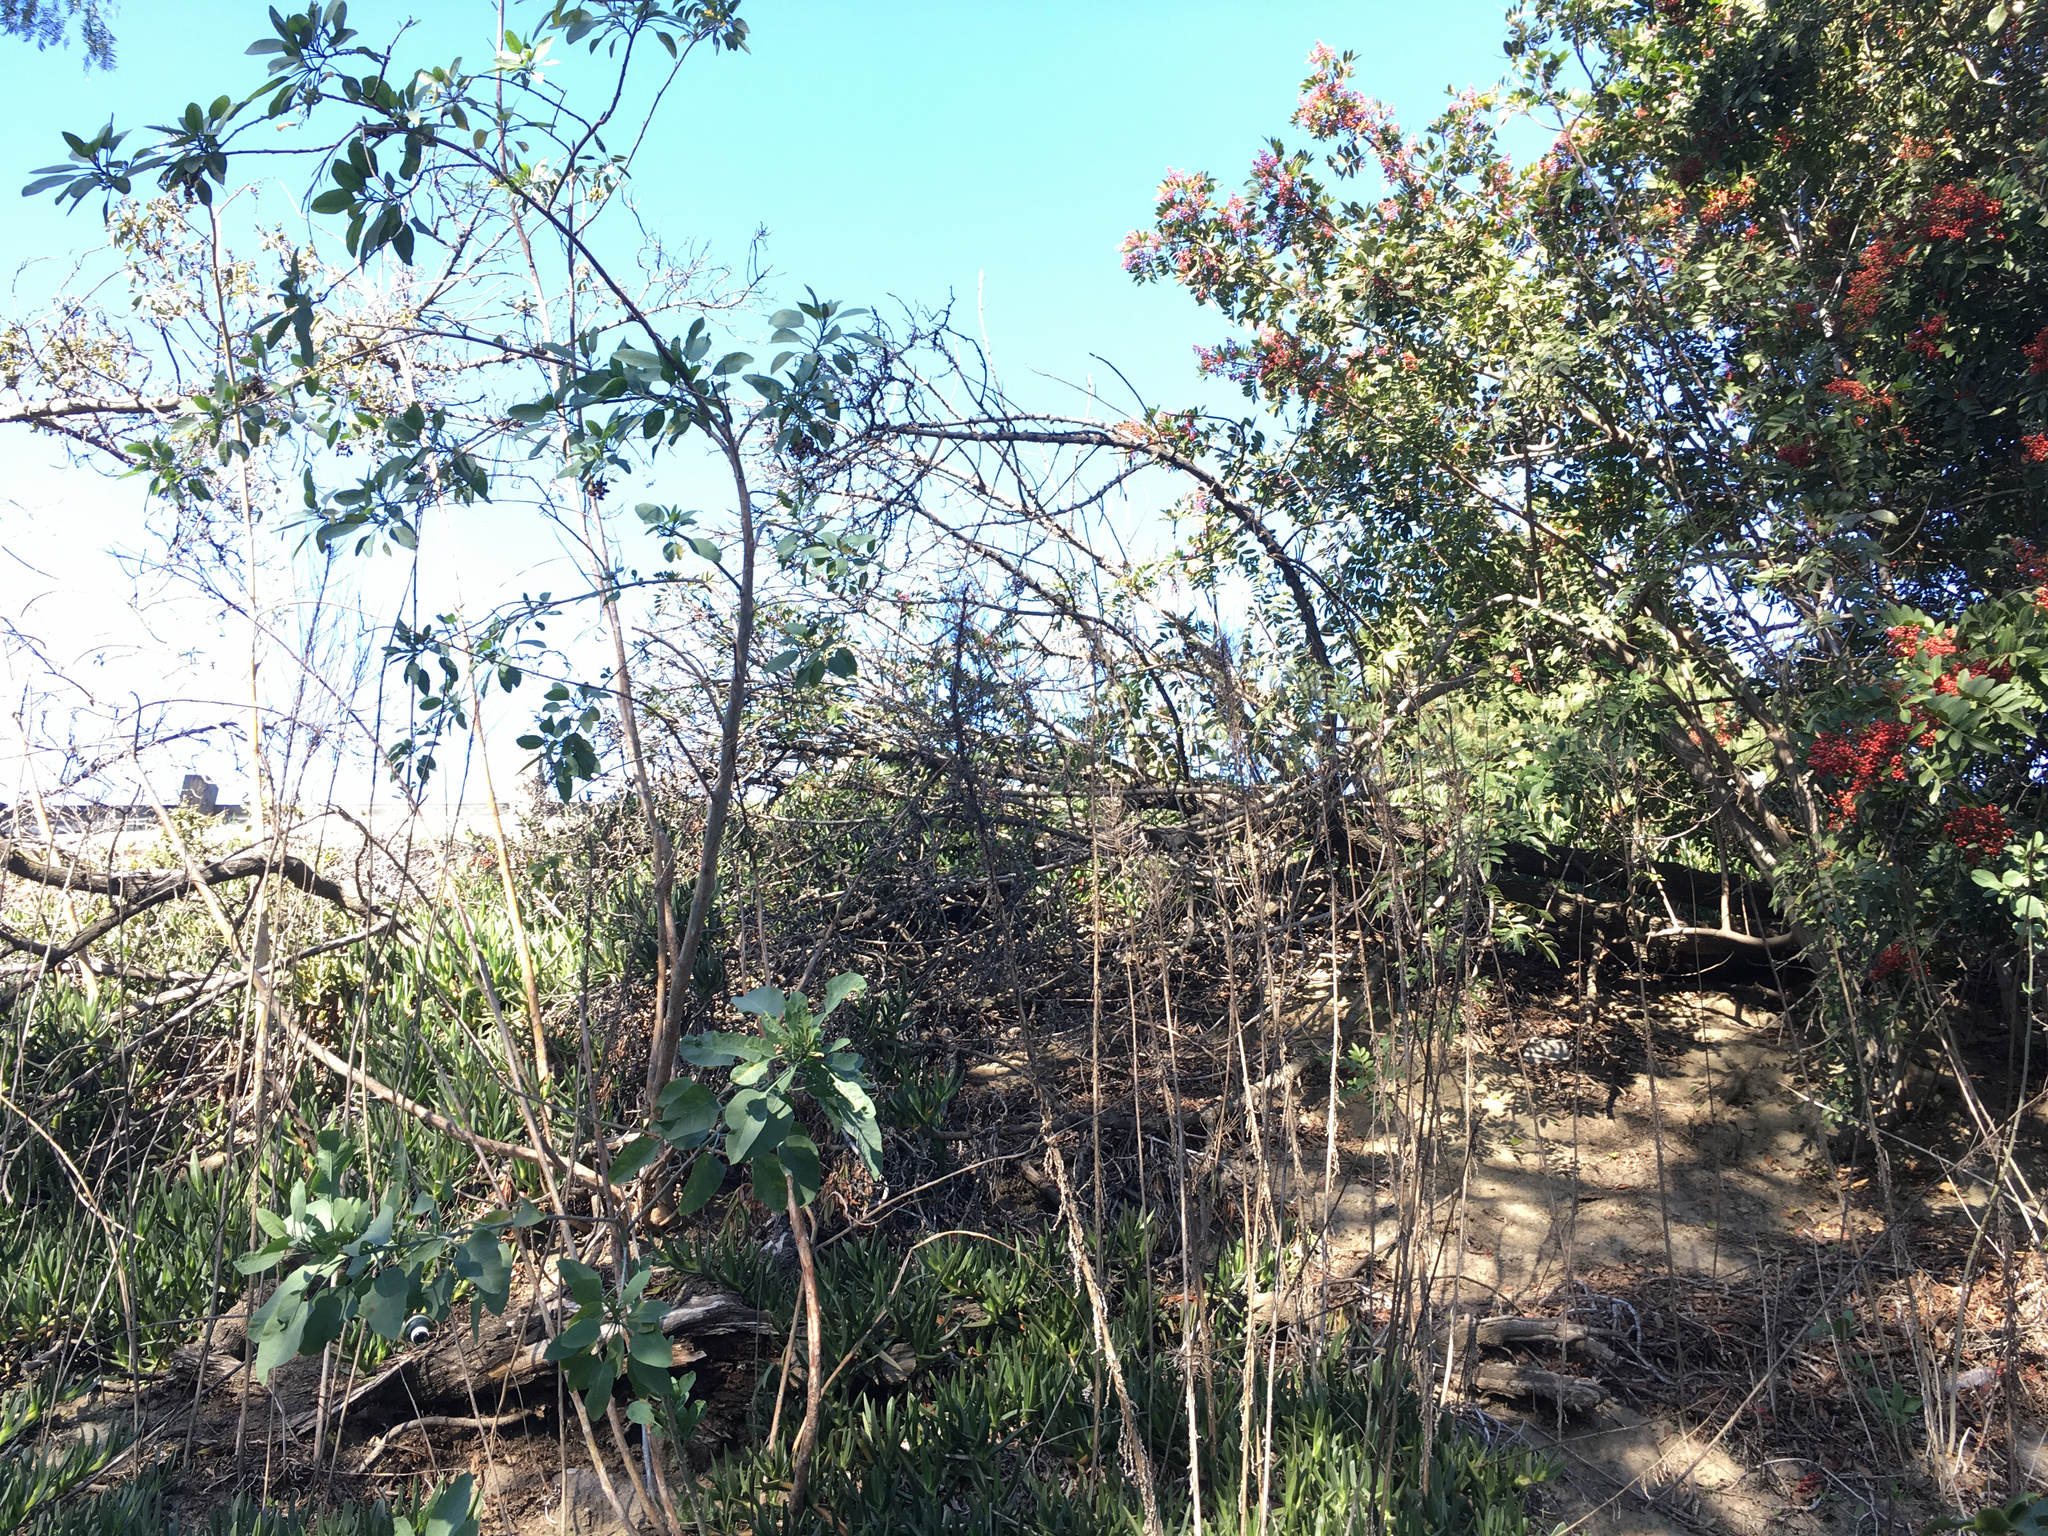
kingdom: Plantae
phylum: Tracheophyta
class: Magnoliopsida
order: Lamiales
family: Scrophulariaceae
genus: Myoporum
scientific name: Myoporum laetum
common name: Ngaio tree
